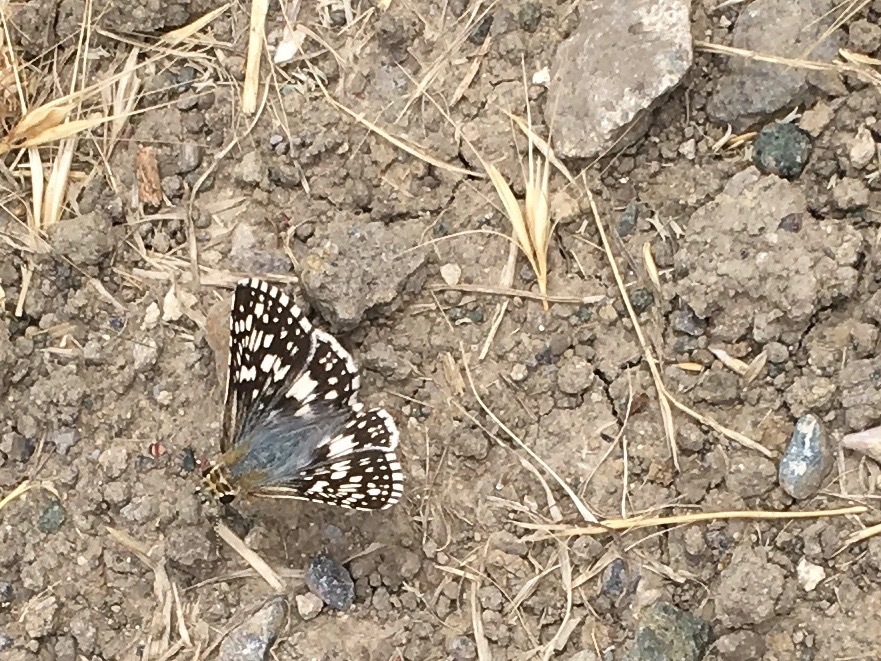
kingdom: Animalia
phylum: Arthropoda
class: Insecta
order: Lepidoptera
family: Hesperiidae
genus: Burnsius
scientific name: Burnsius communis
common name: Common checkered-skipper
